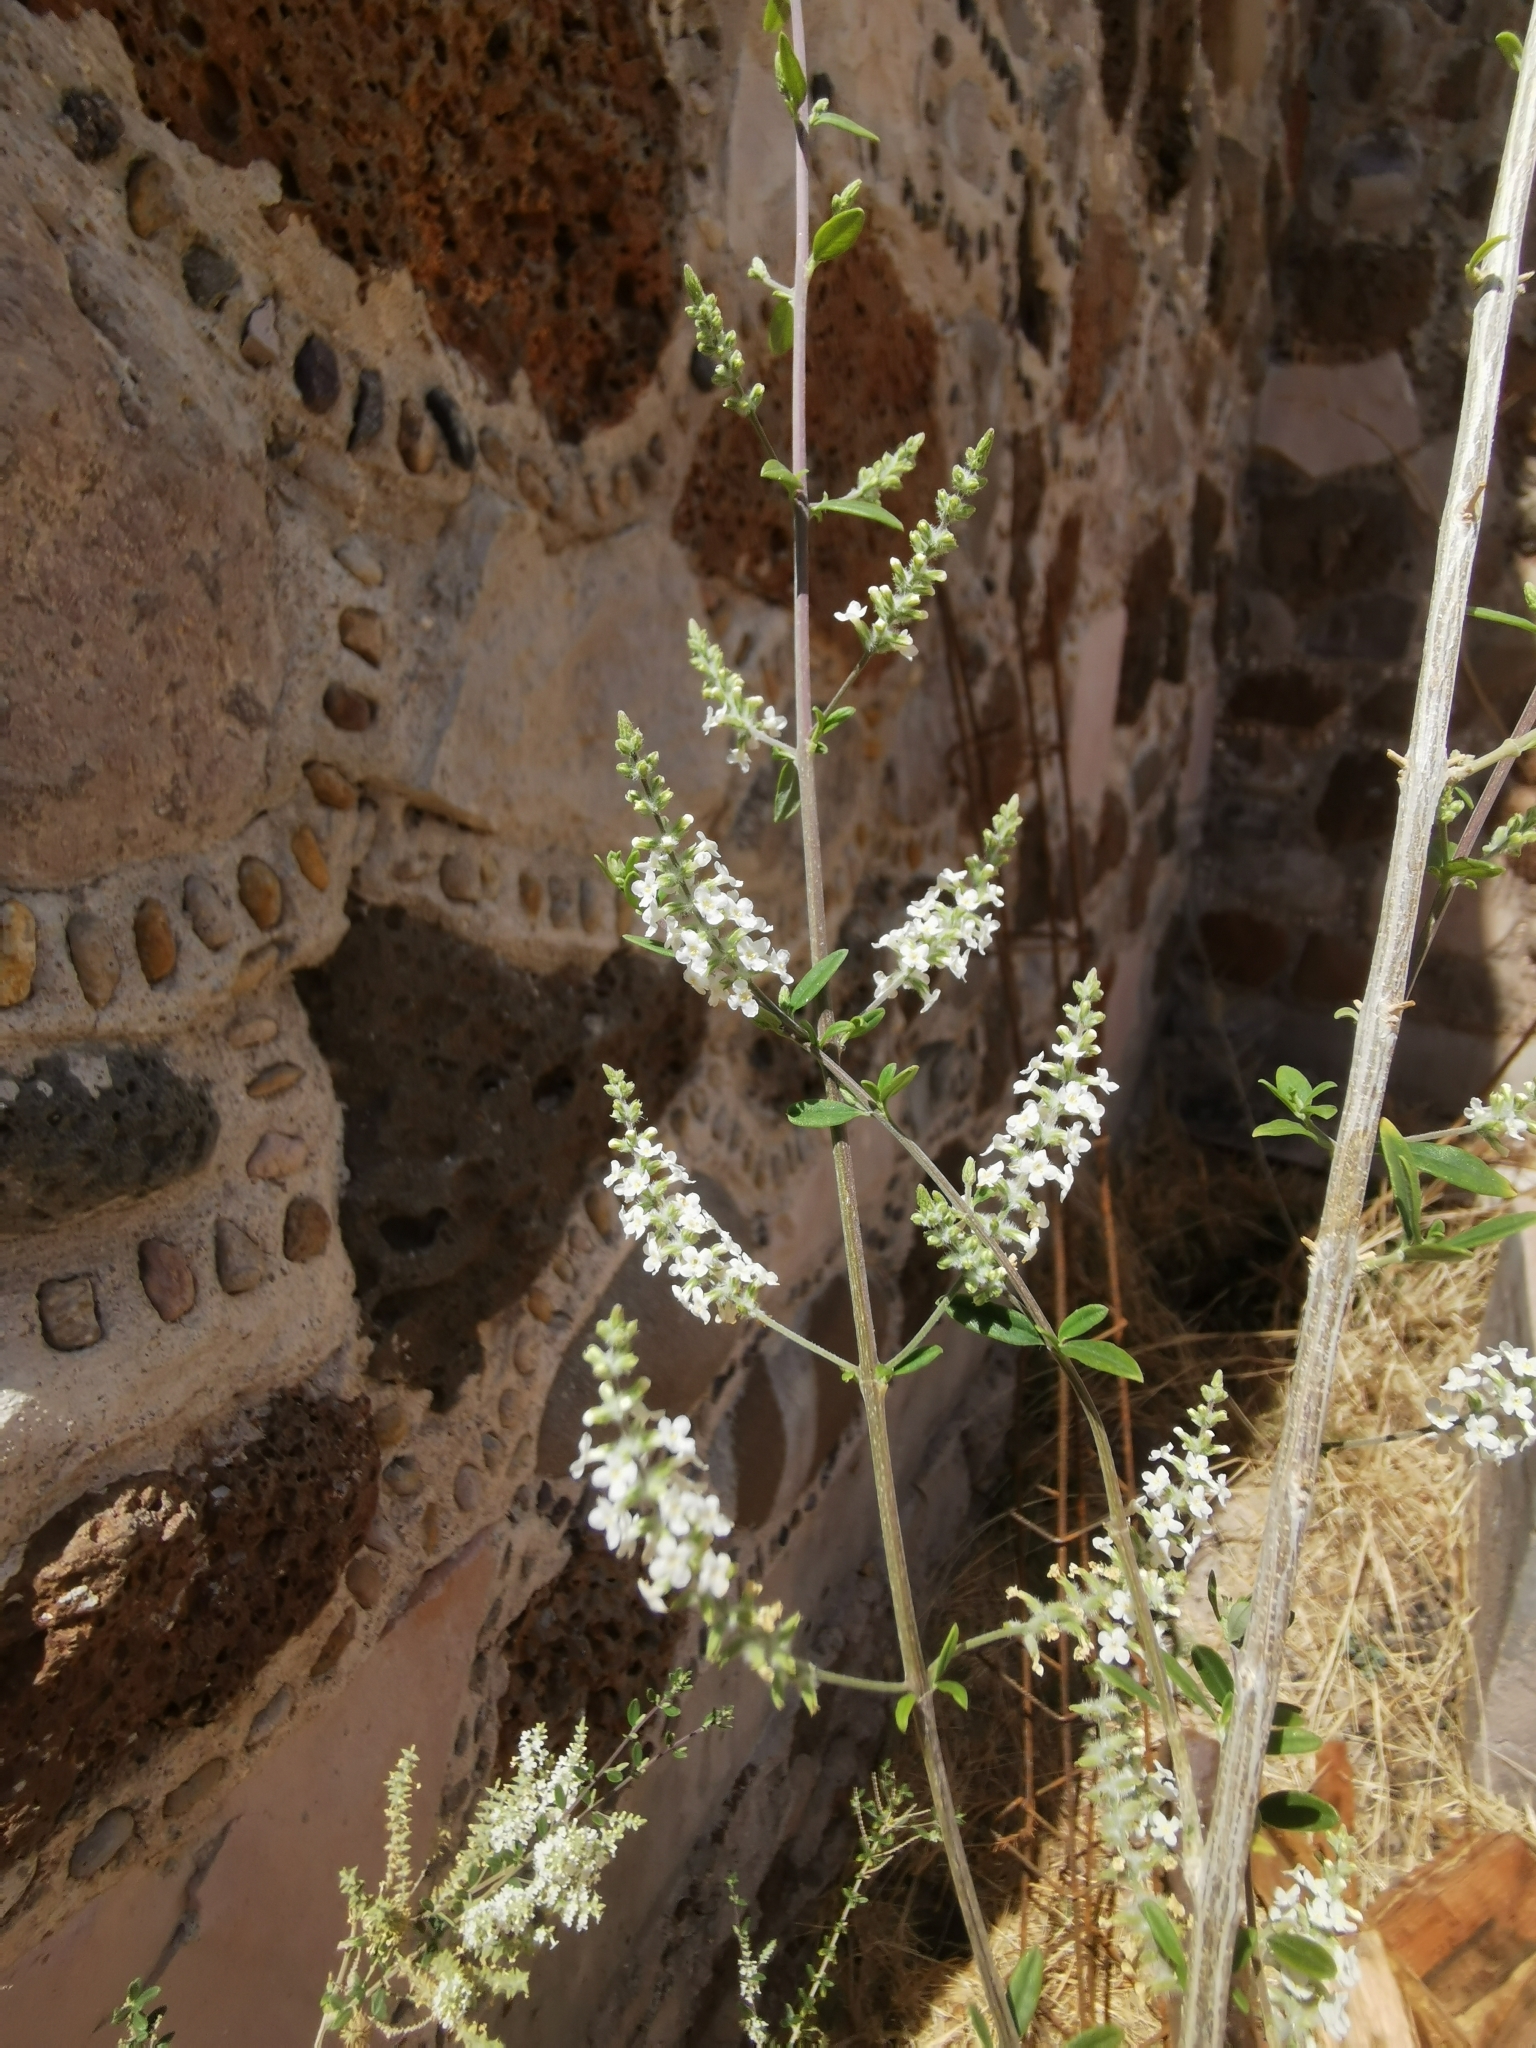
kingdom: Plantae
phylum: Tracheophyta
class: Magnoliopsida
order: Lamiales
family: Verbenaceae
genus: Aloysia
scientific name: Aloysia gratissima
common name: Common bee-brush
